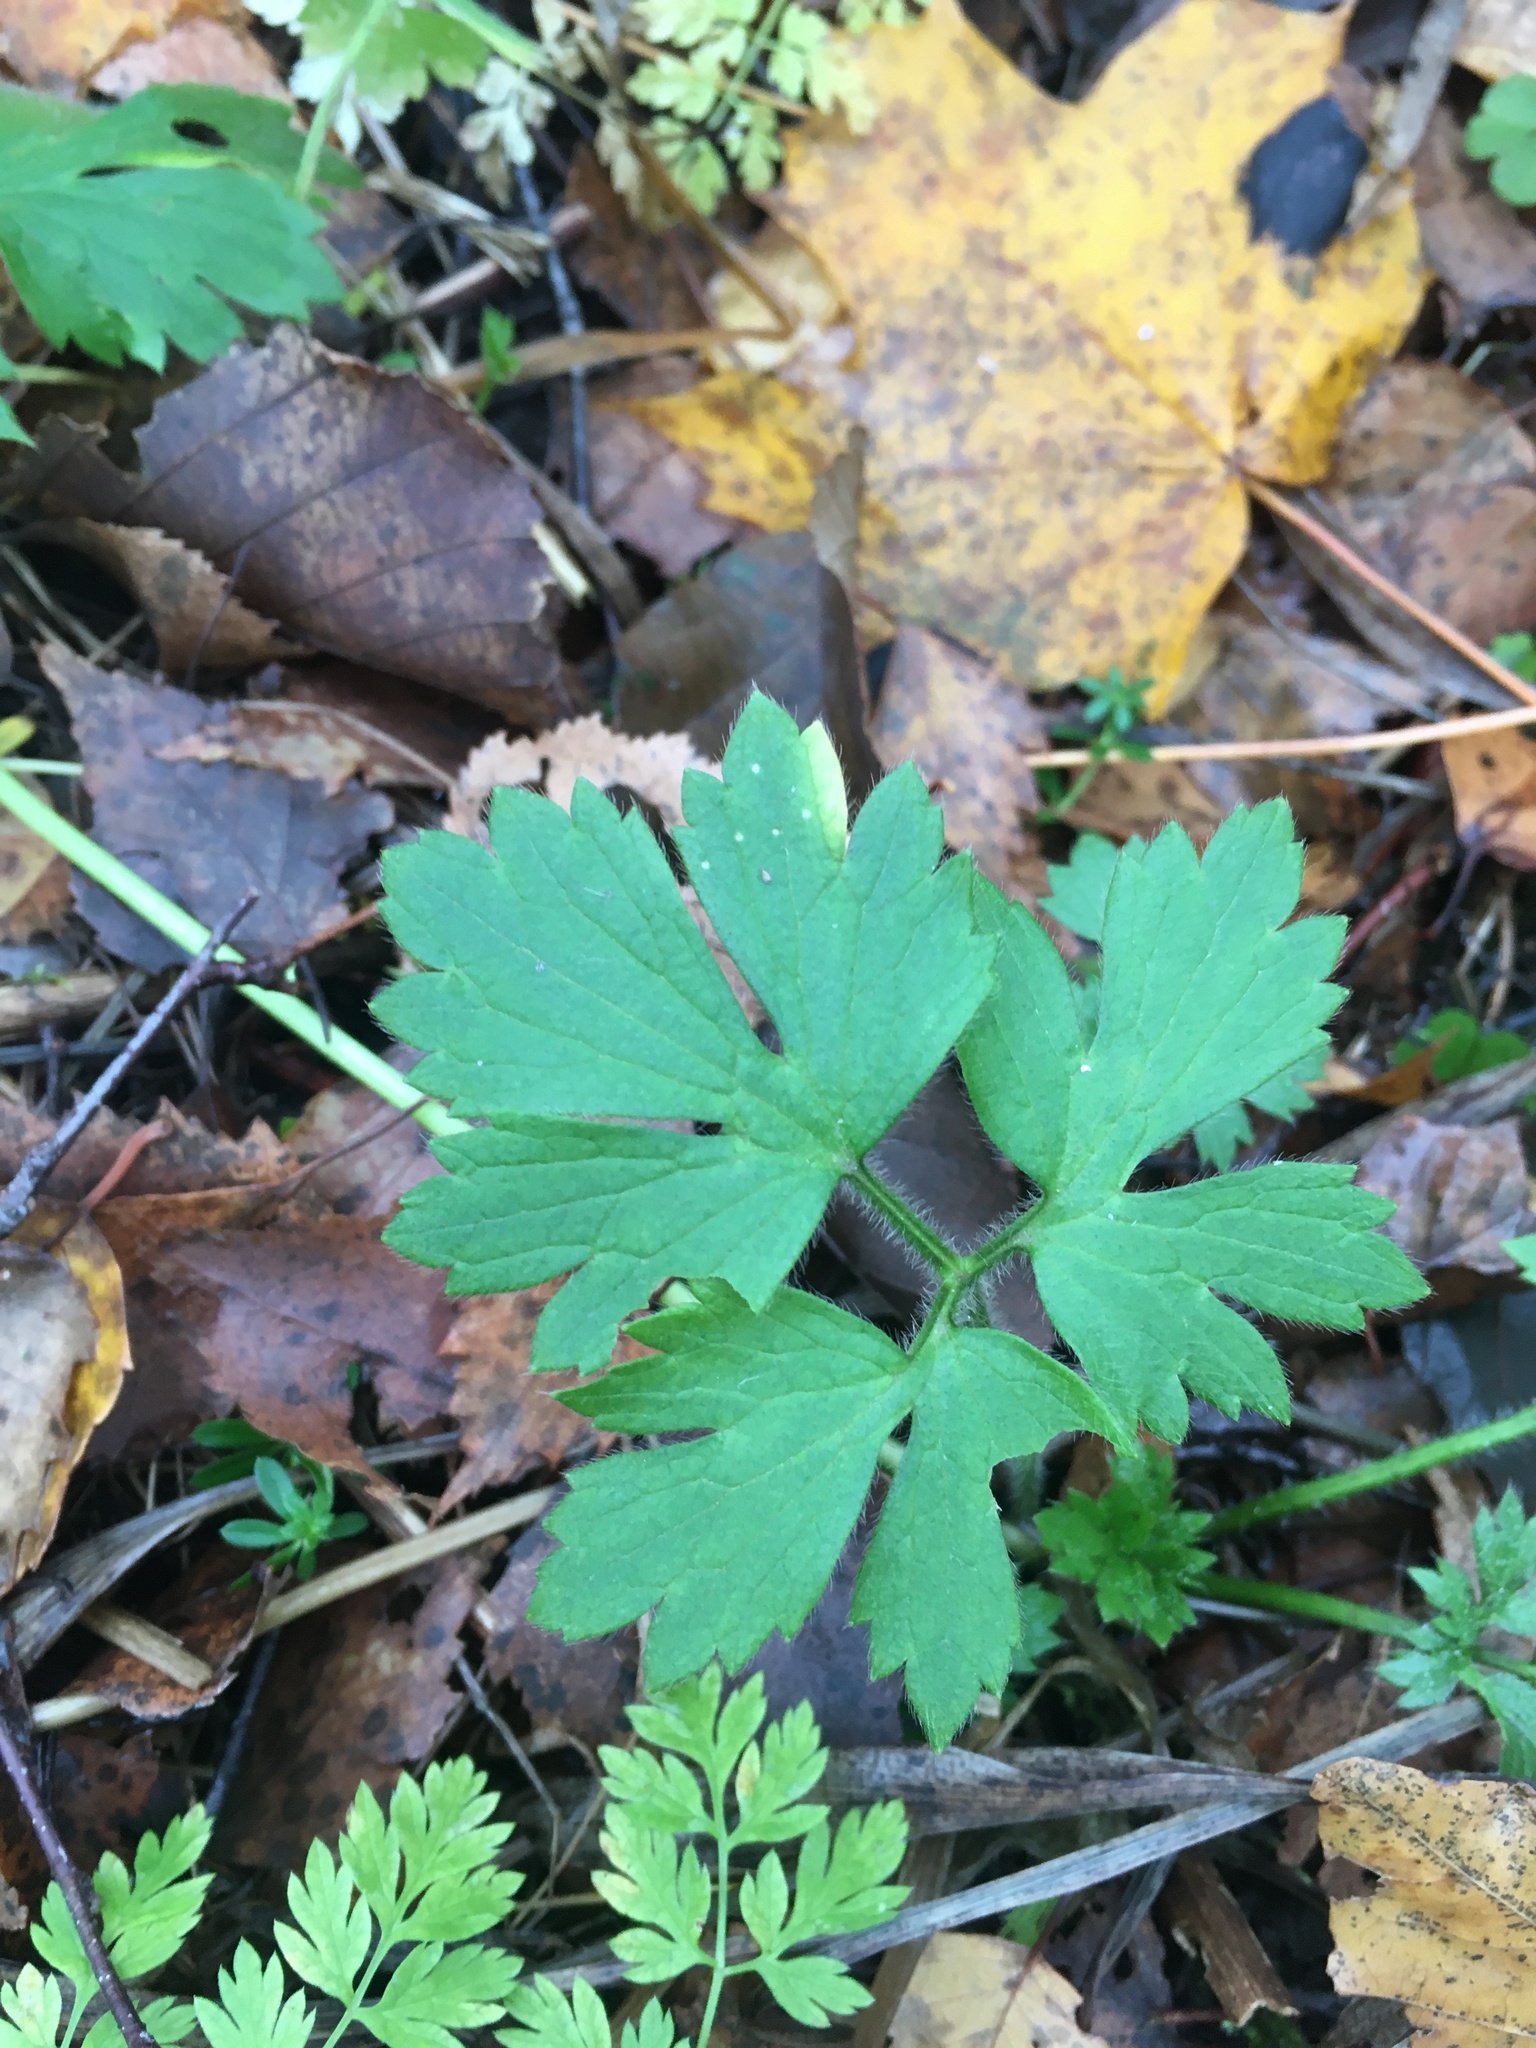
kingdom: Plantae
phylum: Tracheophyta
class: Magnoliopsida
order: Ranunculales
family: Ranunculaceae
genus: Ranunculus
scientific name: Ranunculus repens
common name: Creeping buttercup
